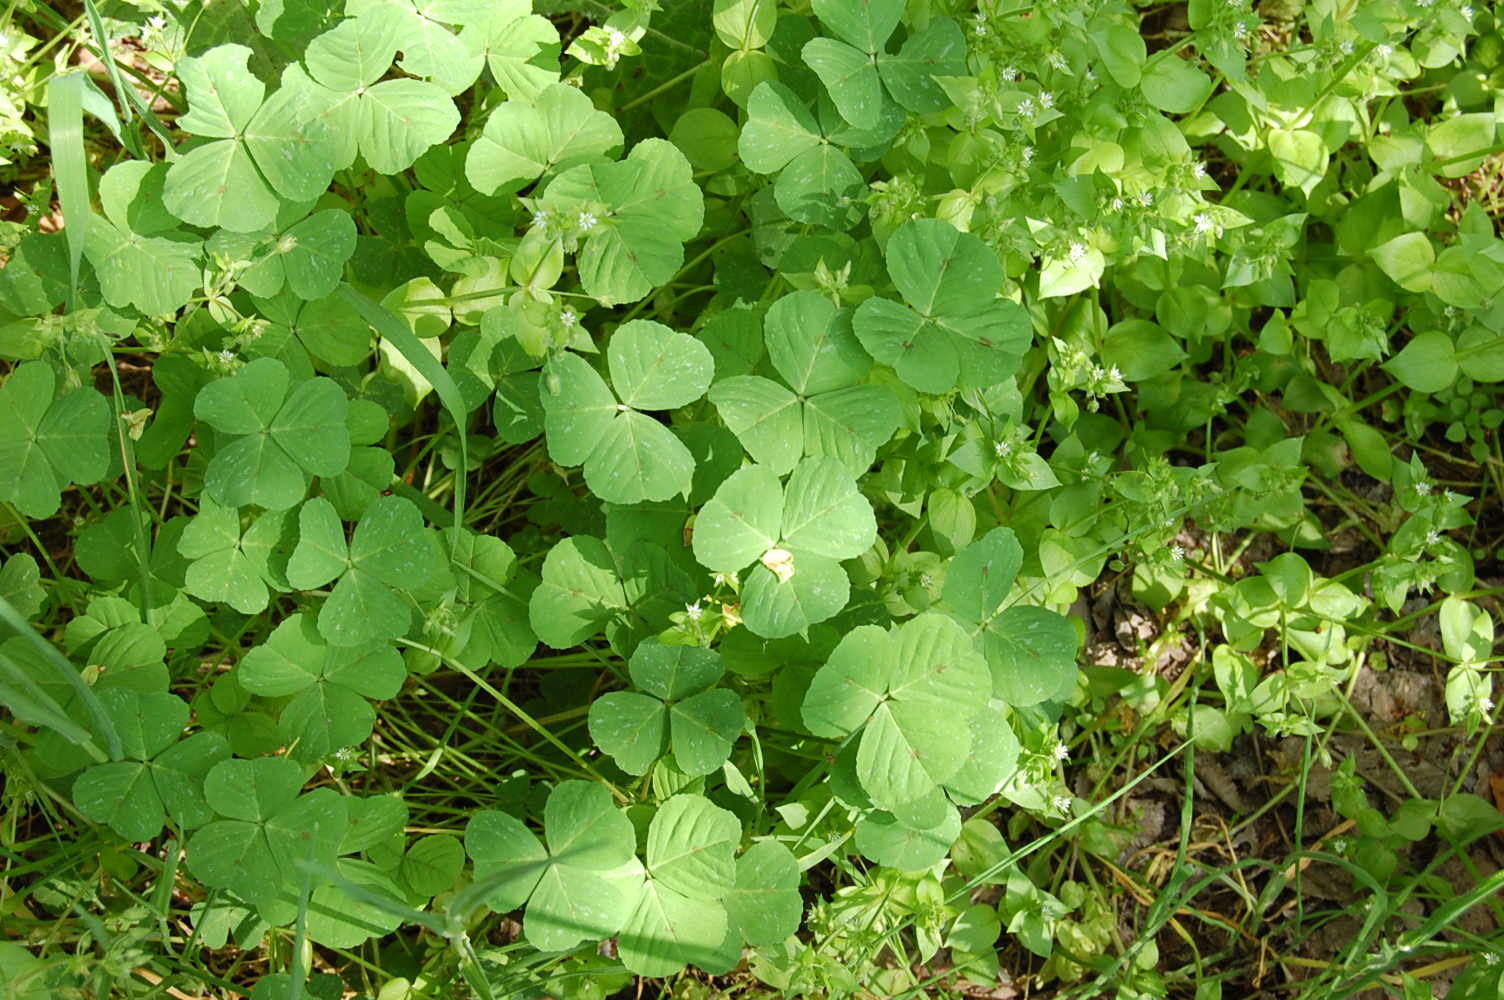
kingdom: Plantae
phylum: Tracheophyta
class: Magnoliopsida
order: Fabales
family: Fabaceae
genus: Medicago
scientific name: Medicago arabica
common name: Spotted medick
